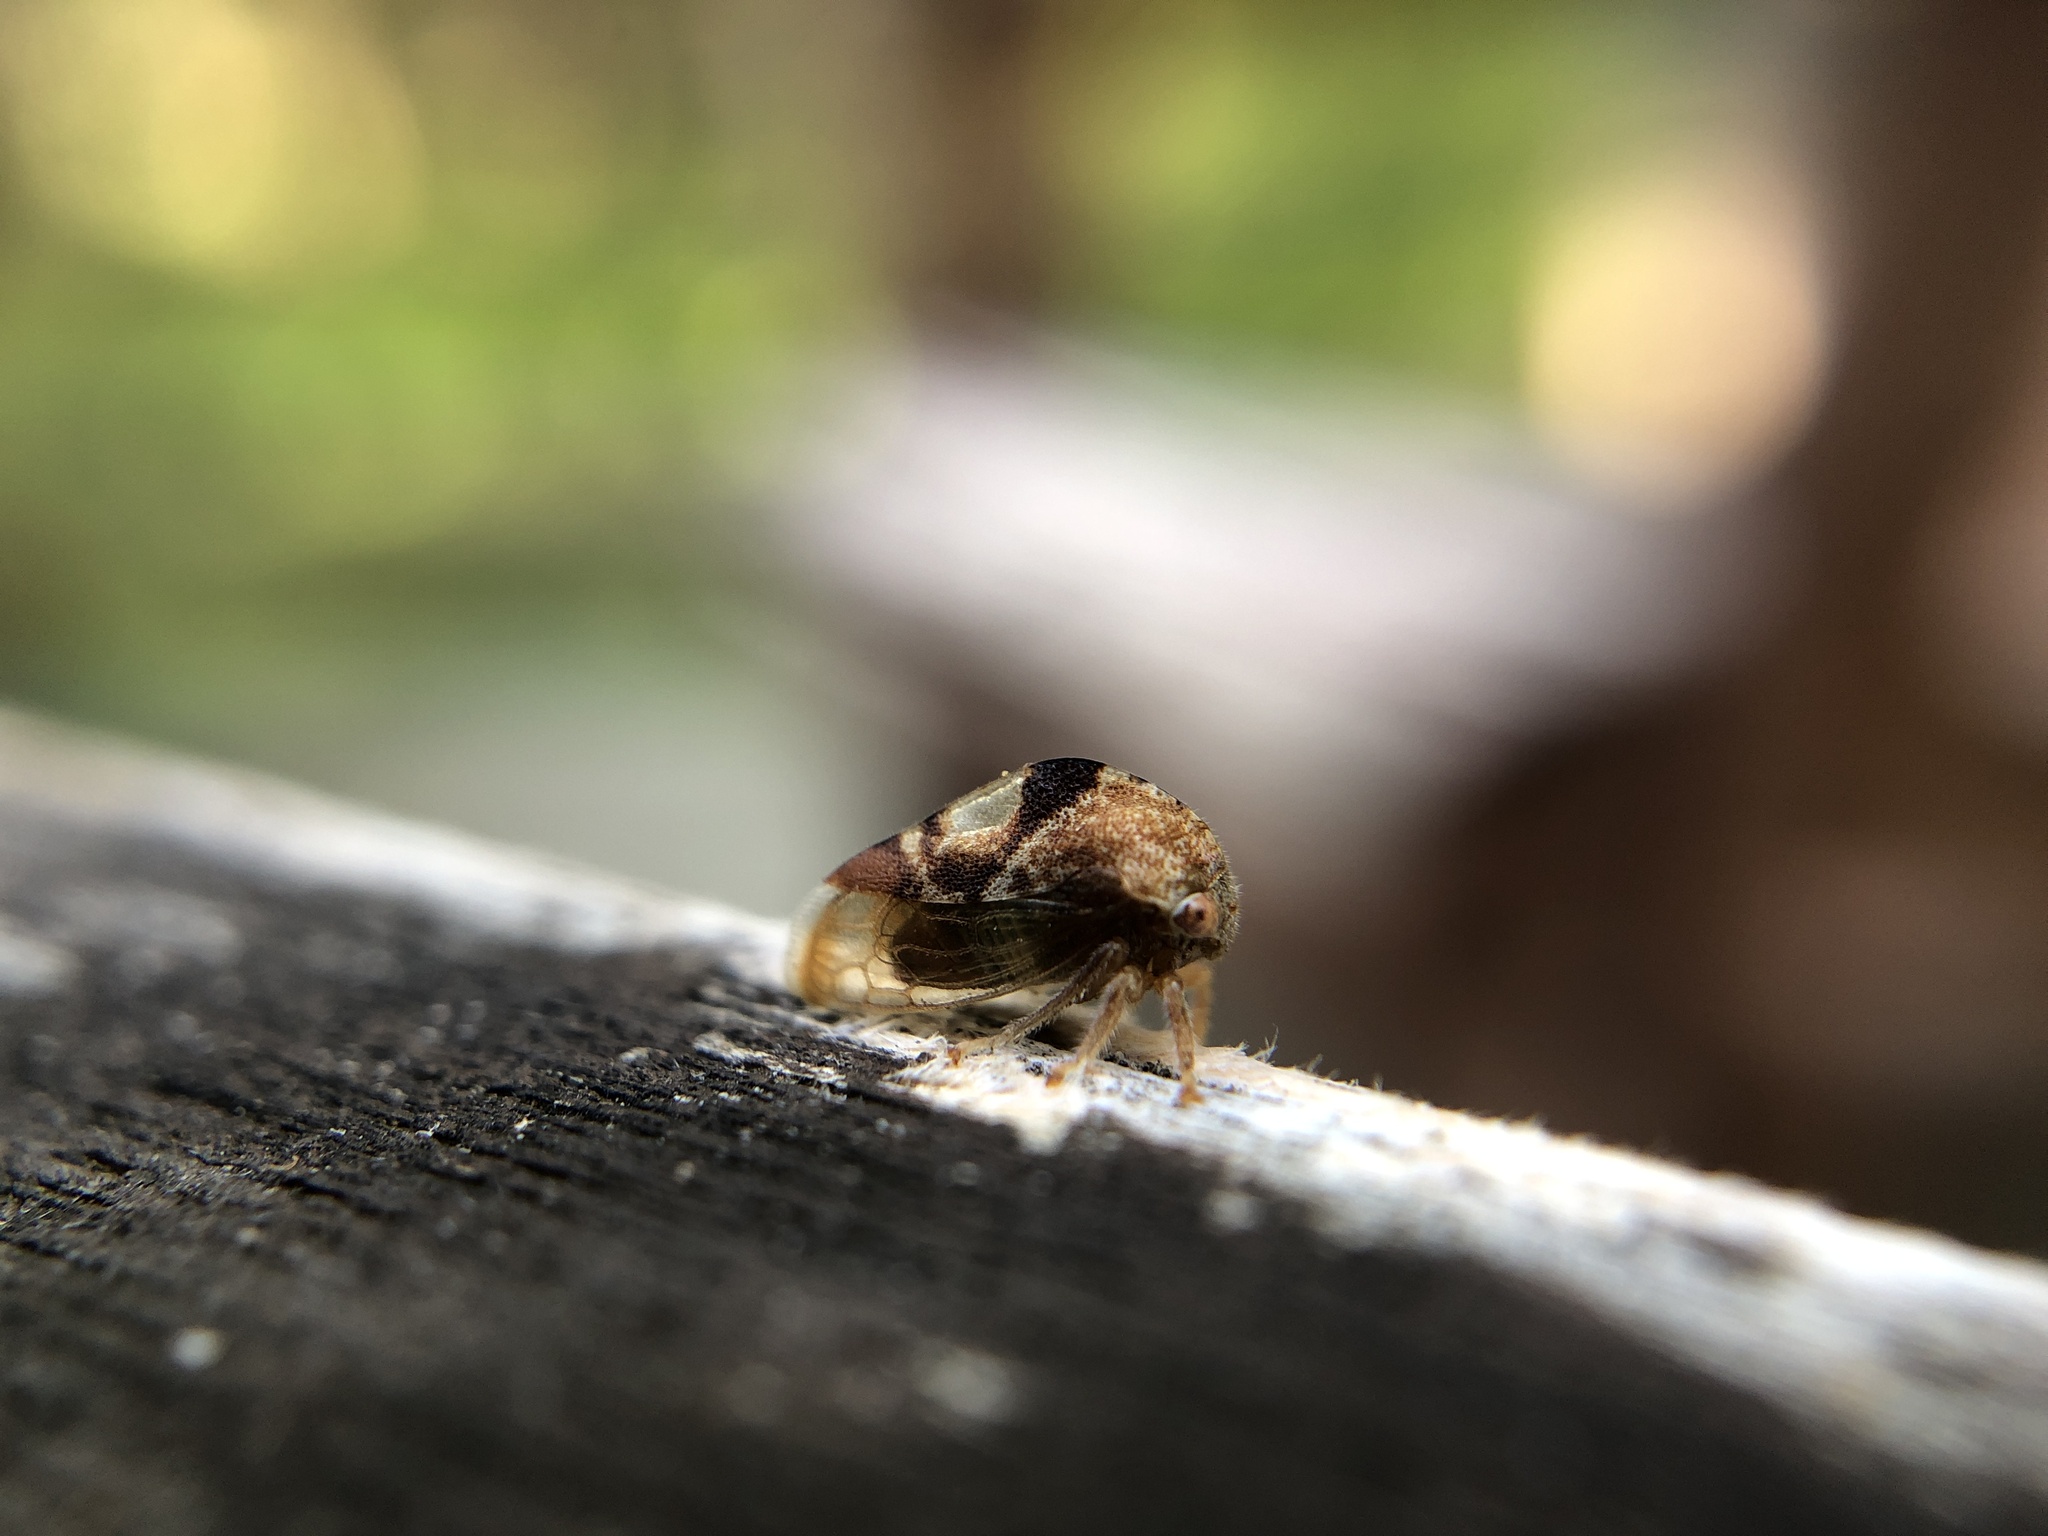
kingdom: Animalia
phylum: Arthropoda
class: Insecta
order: Hemiptera
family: Membracidae
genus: Cyrtolobus
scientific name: Cyrtolobus vau
